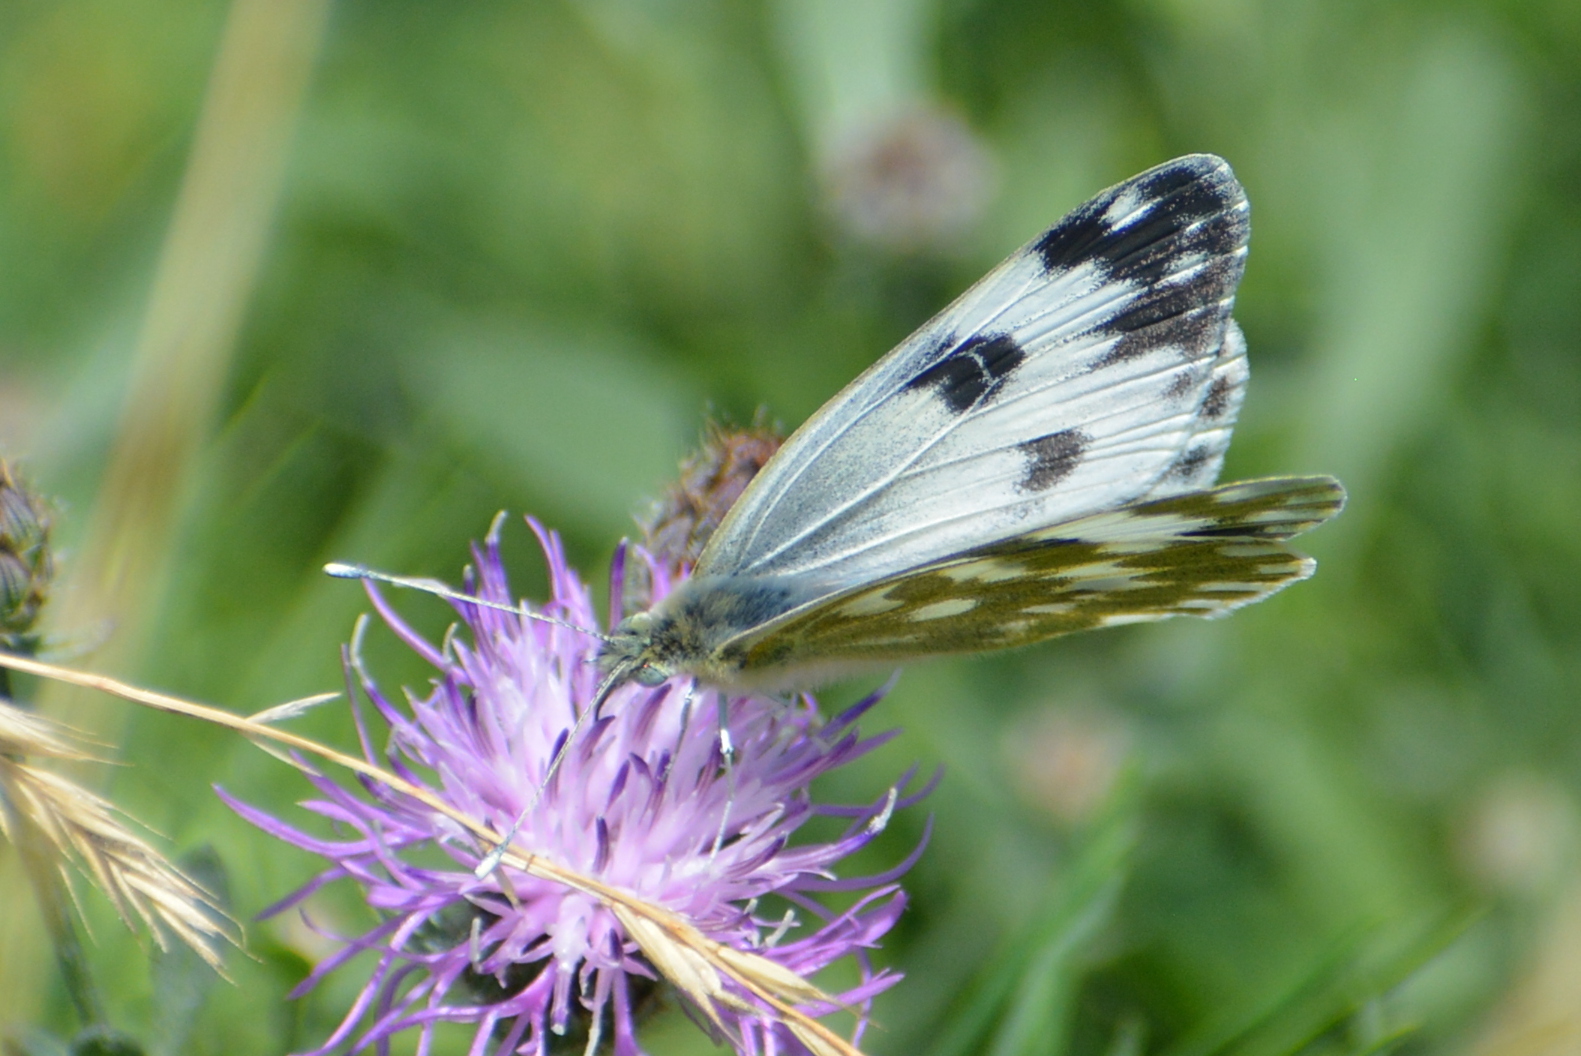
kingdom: Animalia
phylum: Arthropoda
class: Insecta
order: Lepidoptera
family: Pieridae
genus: Pontia
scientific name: Pontia edusa
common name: Eastern bath white
